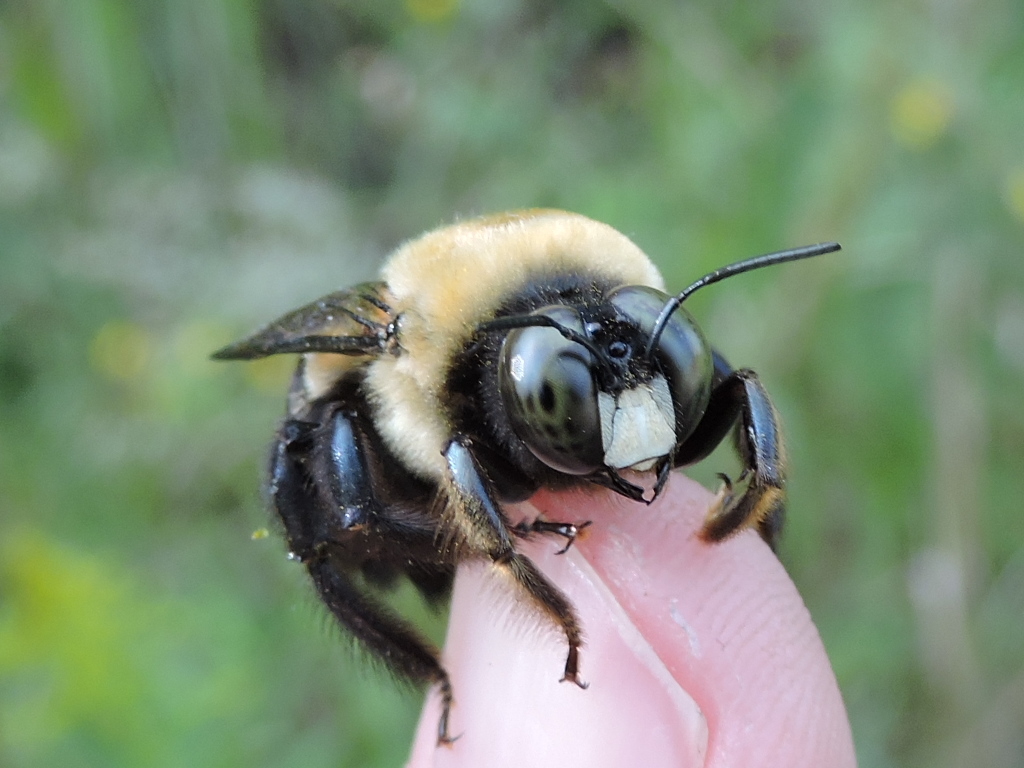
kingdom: Animalia
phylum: Arthropoda
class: Insecta
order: Hymenoptera
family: Apidae
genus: Xylocopa
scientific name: Xylocopa virginica
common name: Carpenter bee
